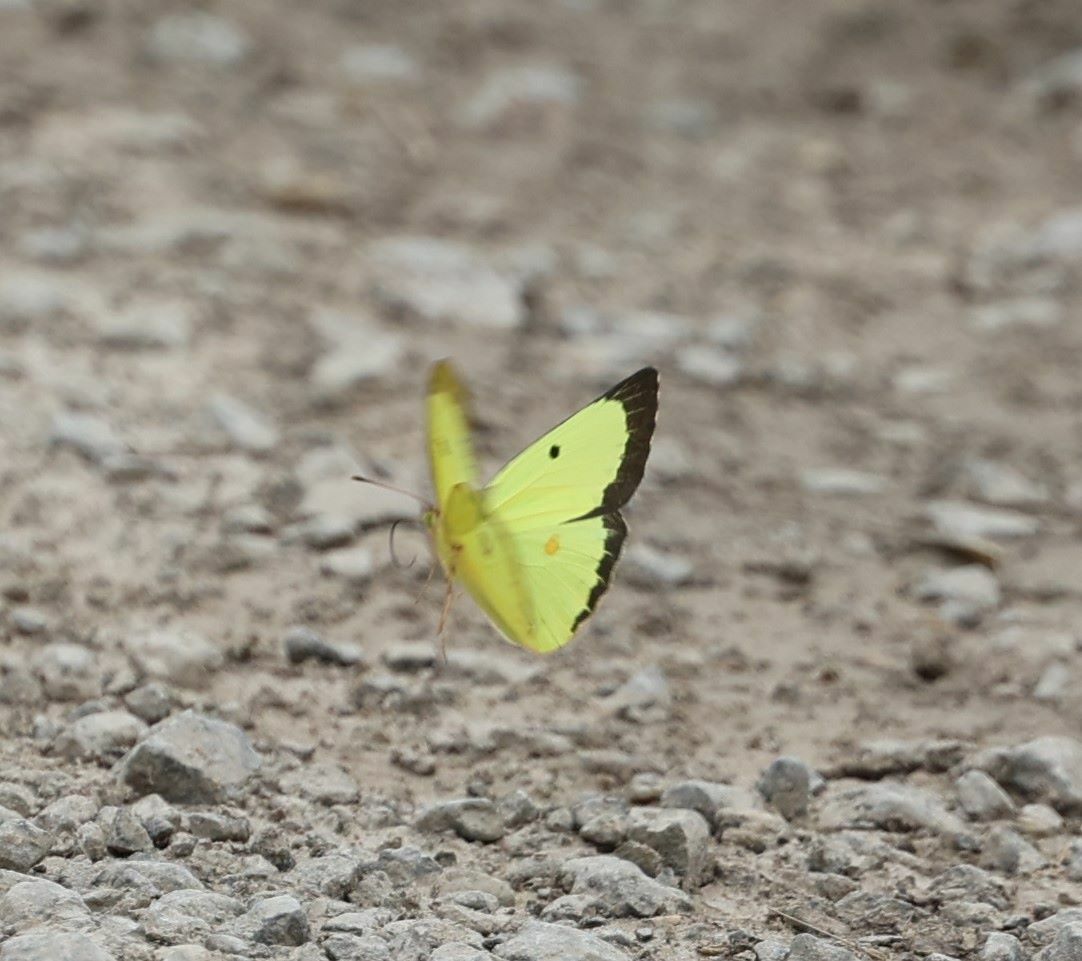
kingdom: Animalia
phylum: Arthropoda
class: Insecta
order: Lepidoptera
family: Pieridae
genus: Colias
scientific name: Colias philodice
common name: Clouded sulphur
